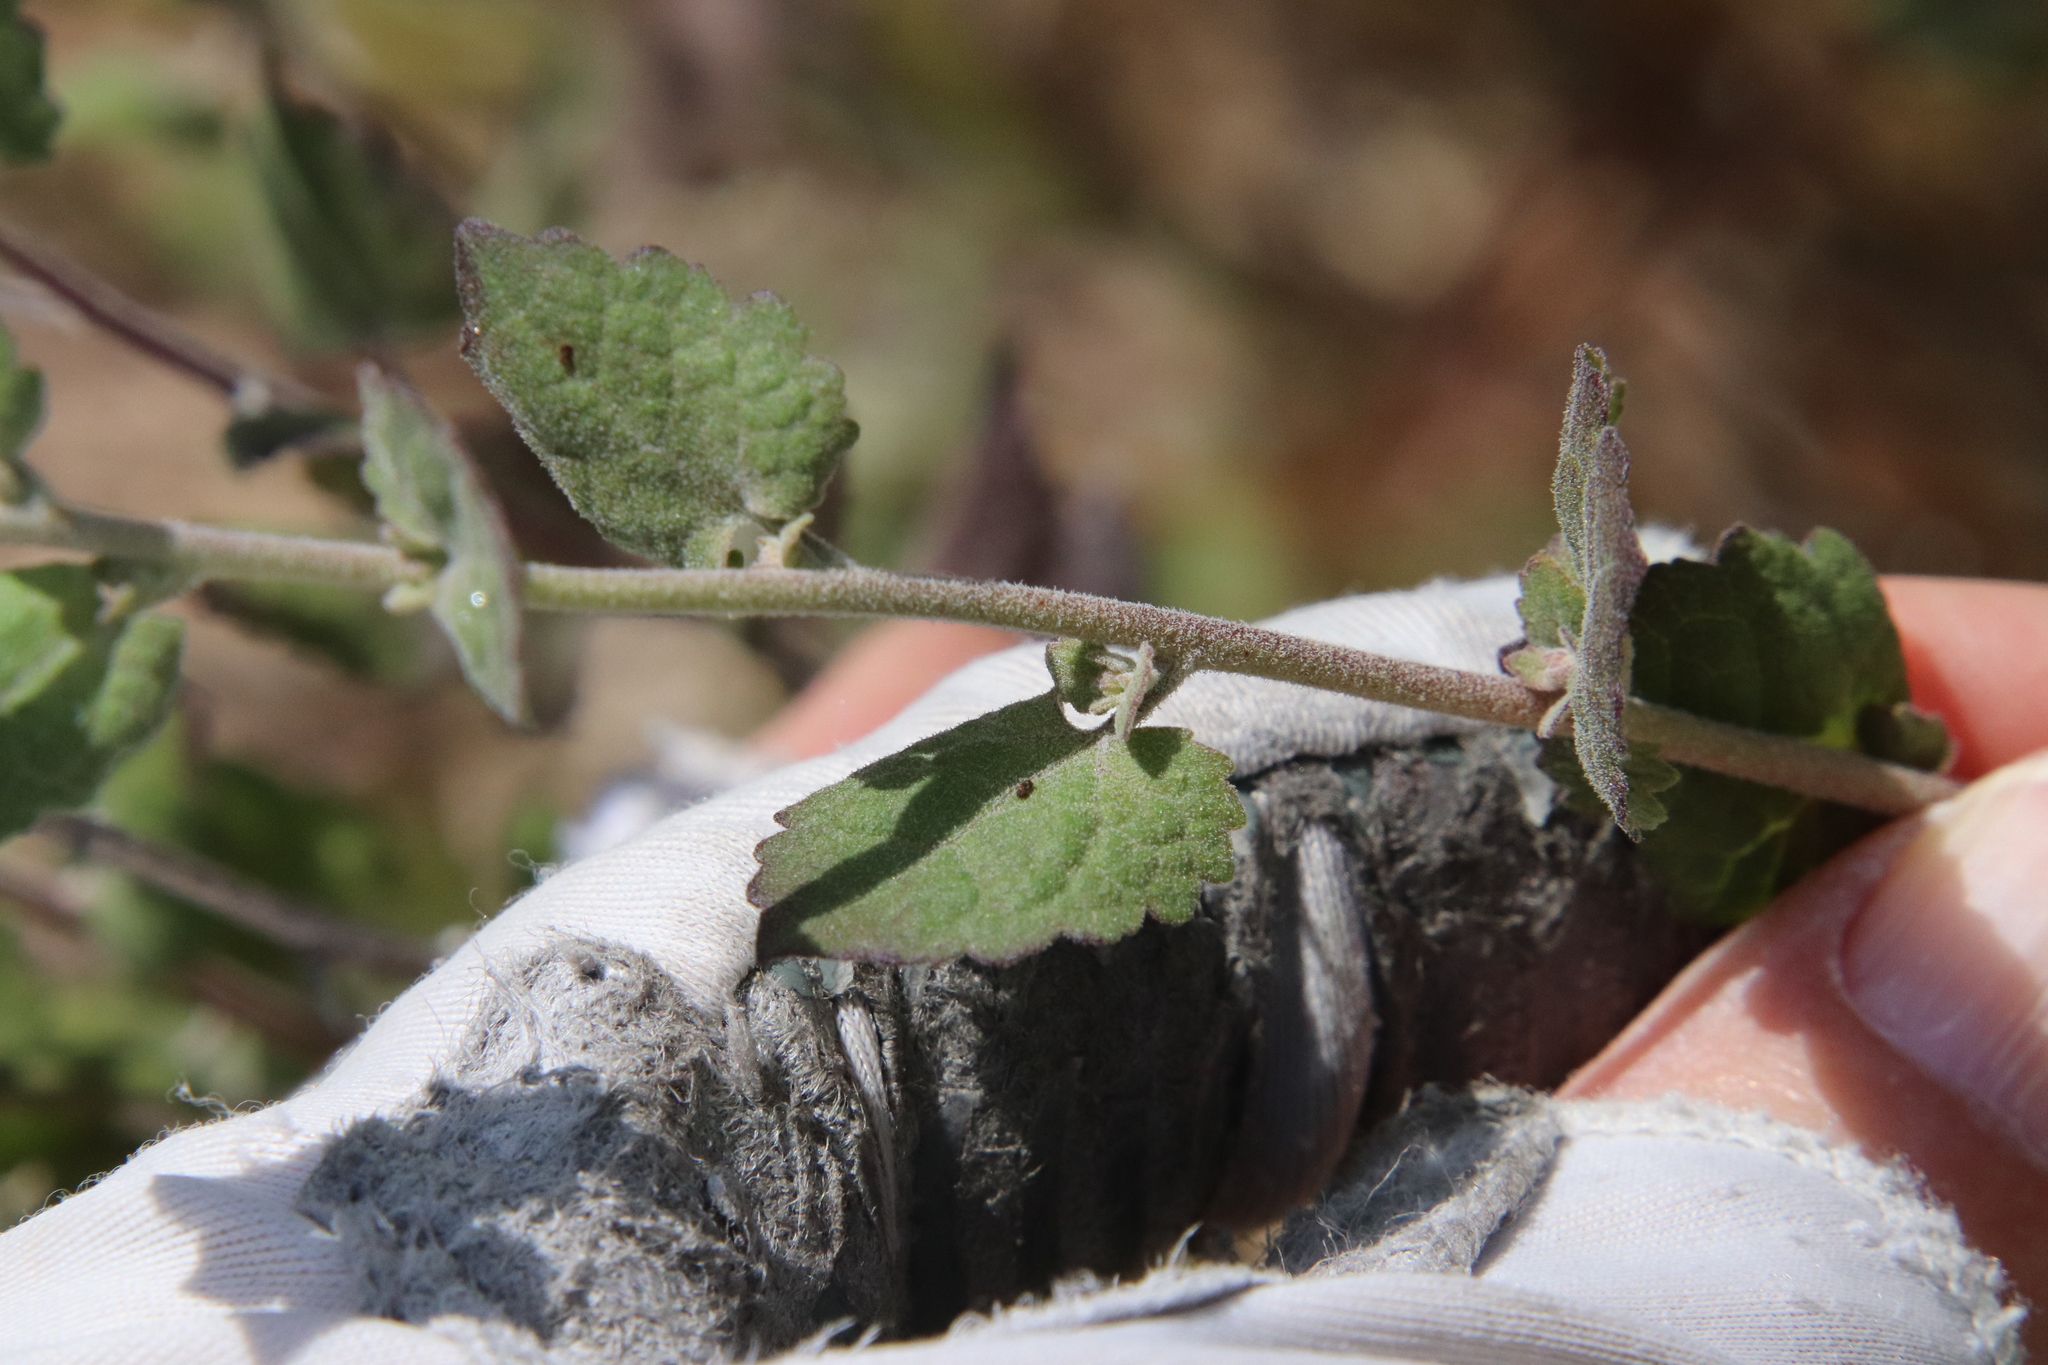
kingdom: Plantae
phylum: Tracheophyta
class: Magnoliopsida
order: Asterales
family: Asteraceae
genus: Brickellia
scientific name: Brickellia californica
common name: California brickellbush
